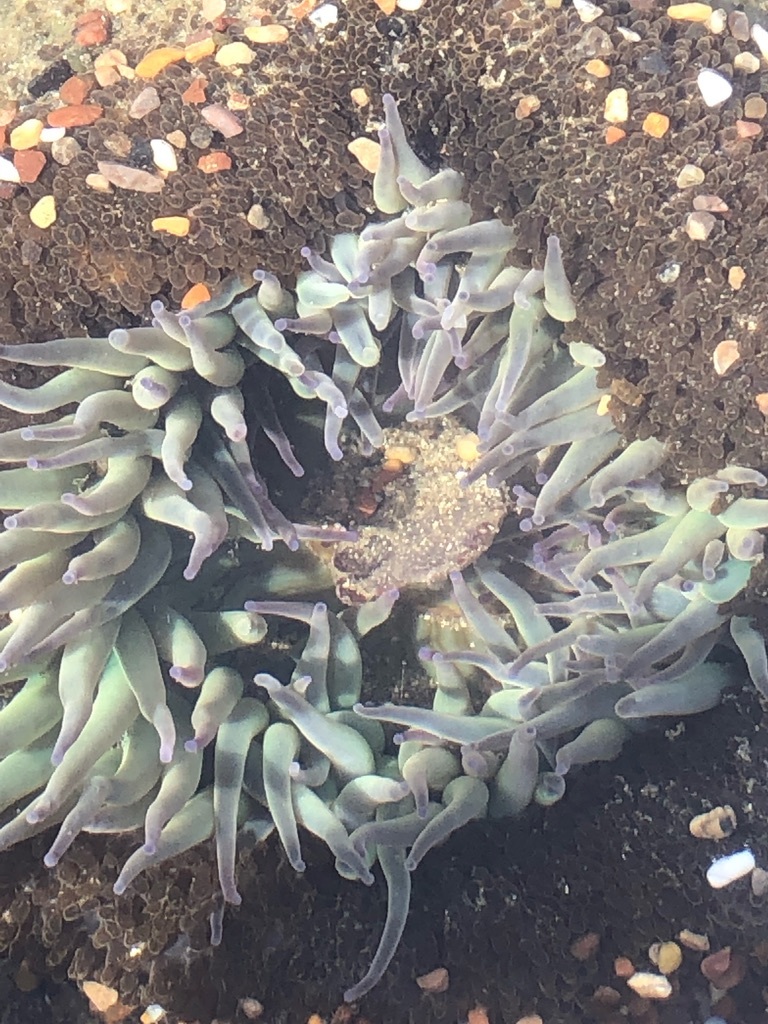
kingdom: Animalia
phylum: Cnidaria
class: Anthozoa
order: Actiniaria
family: Actiniidae
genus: Anthopleura
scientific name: Anthopleura sola
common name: Sun anemone
